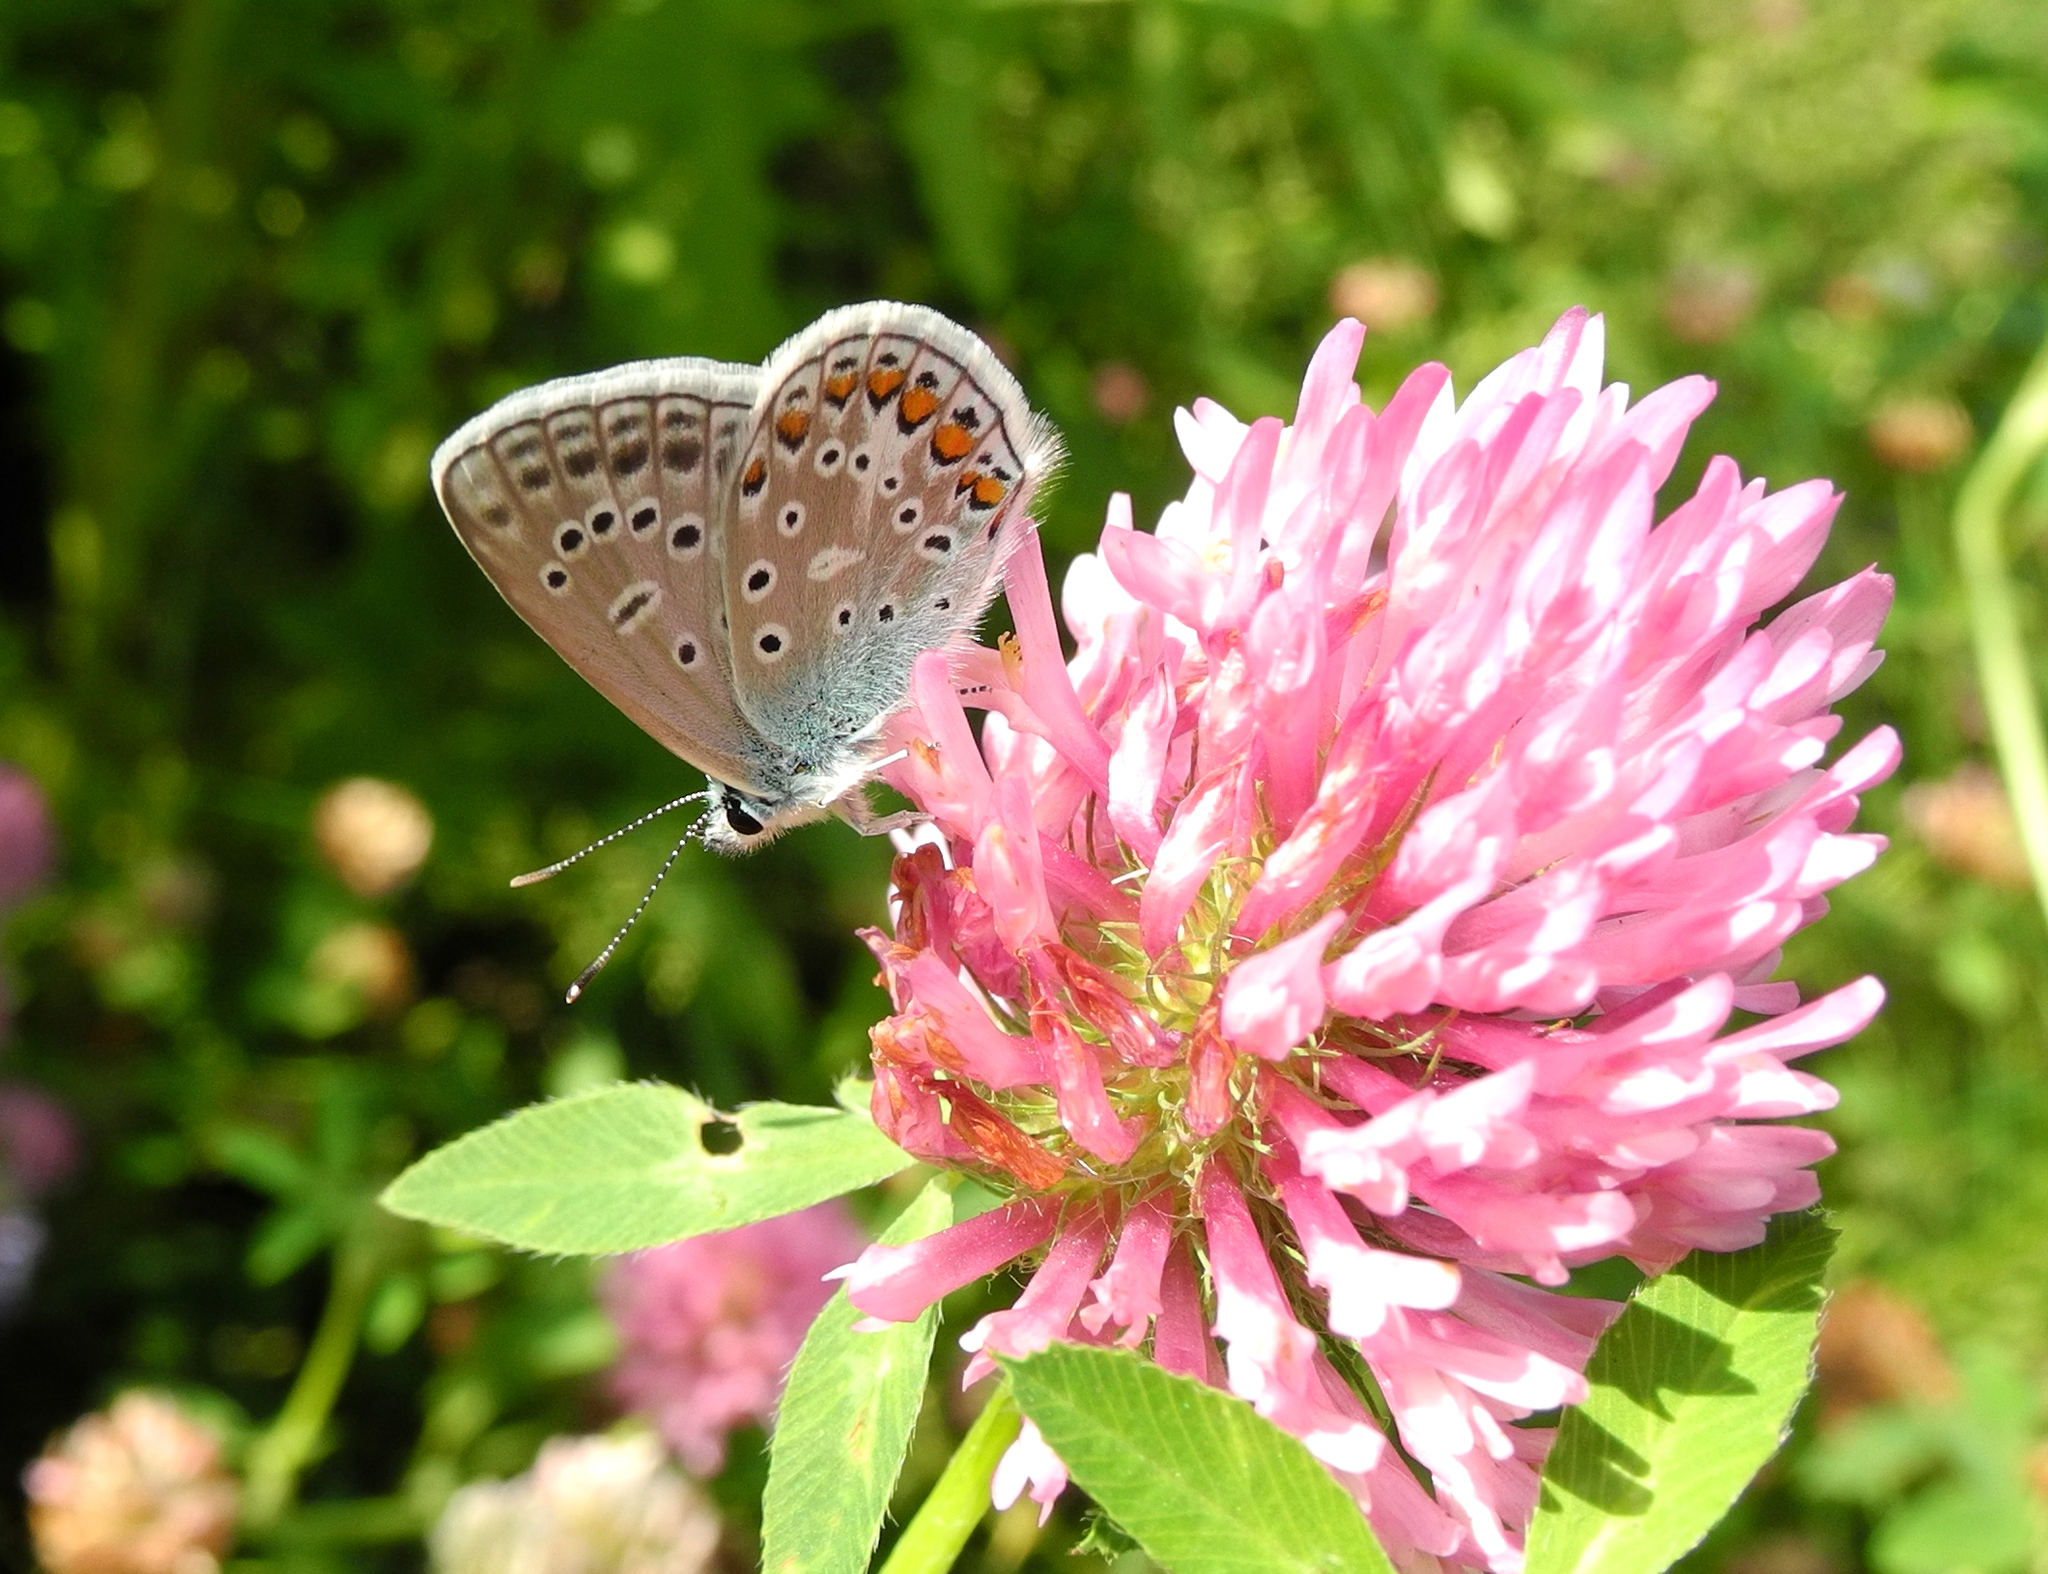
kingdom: Animalia
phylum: Arthropoda
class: Insecta
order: Lepidoptera
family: Lycaenidae
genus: Polyommatus
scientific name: Polyommatus icarus
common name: Common blue
